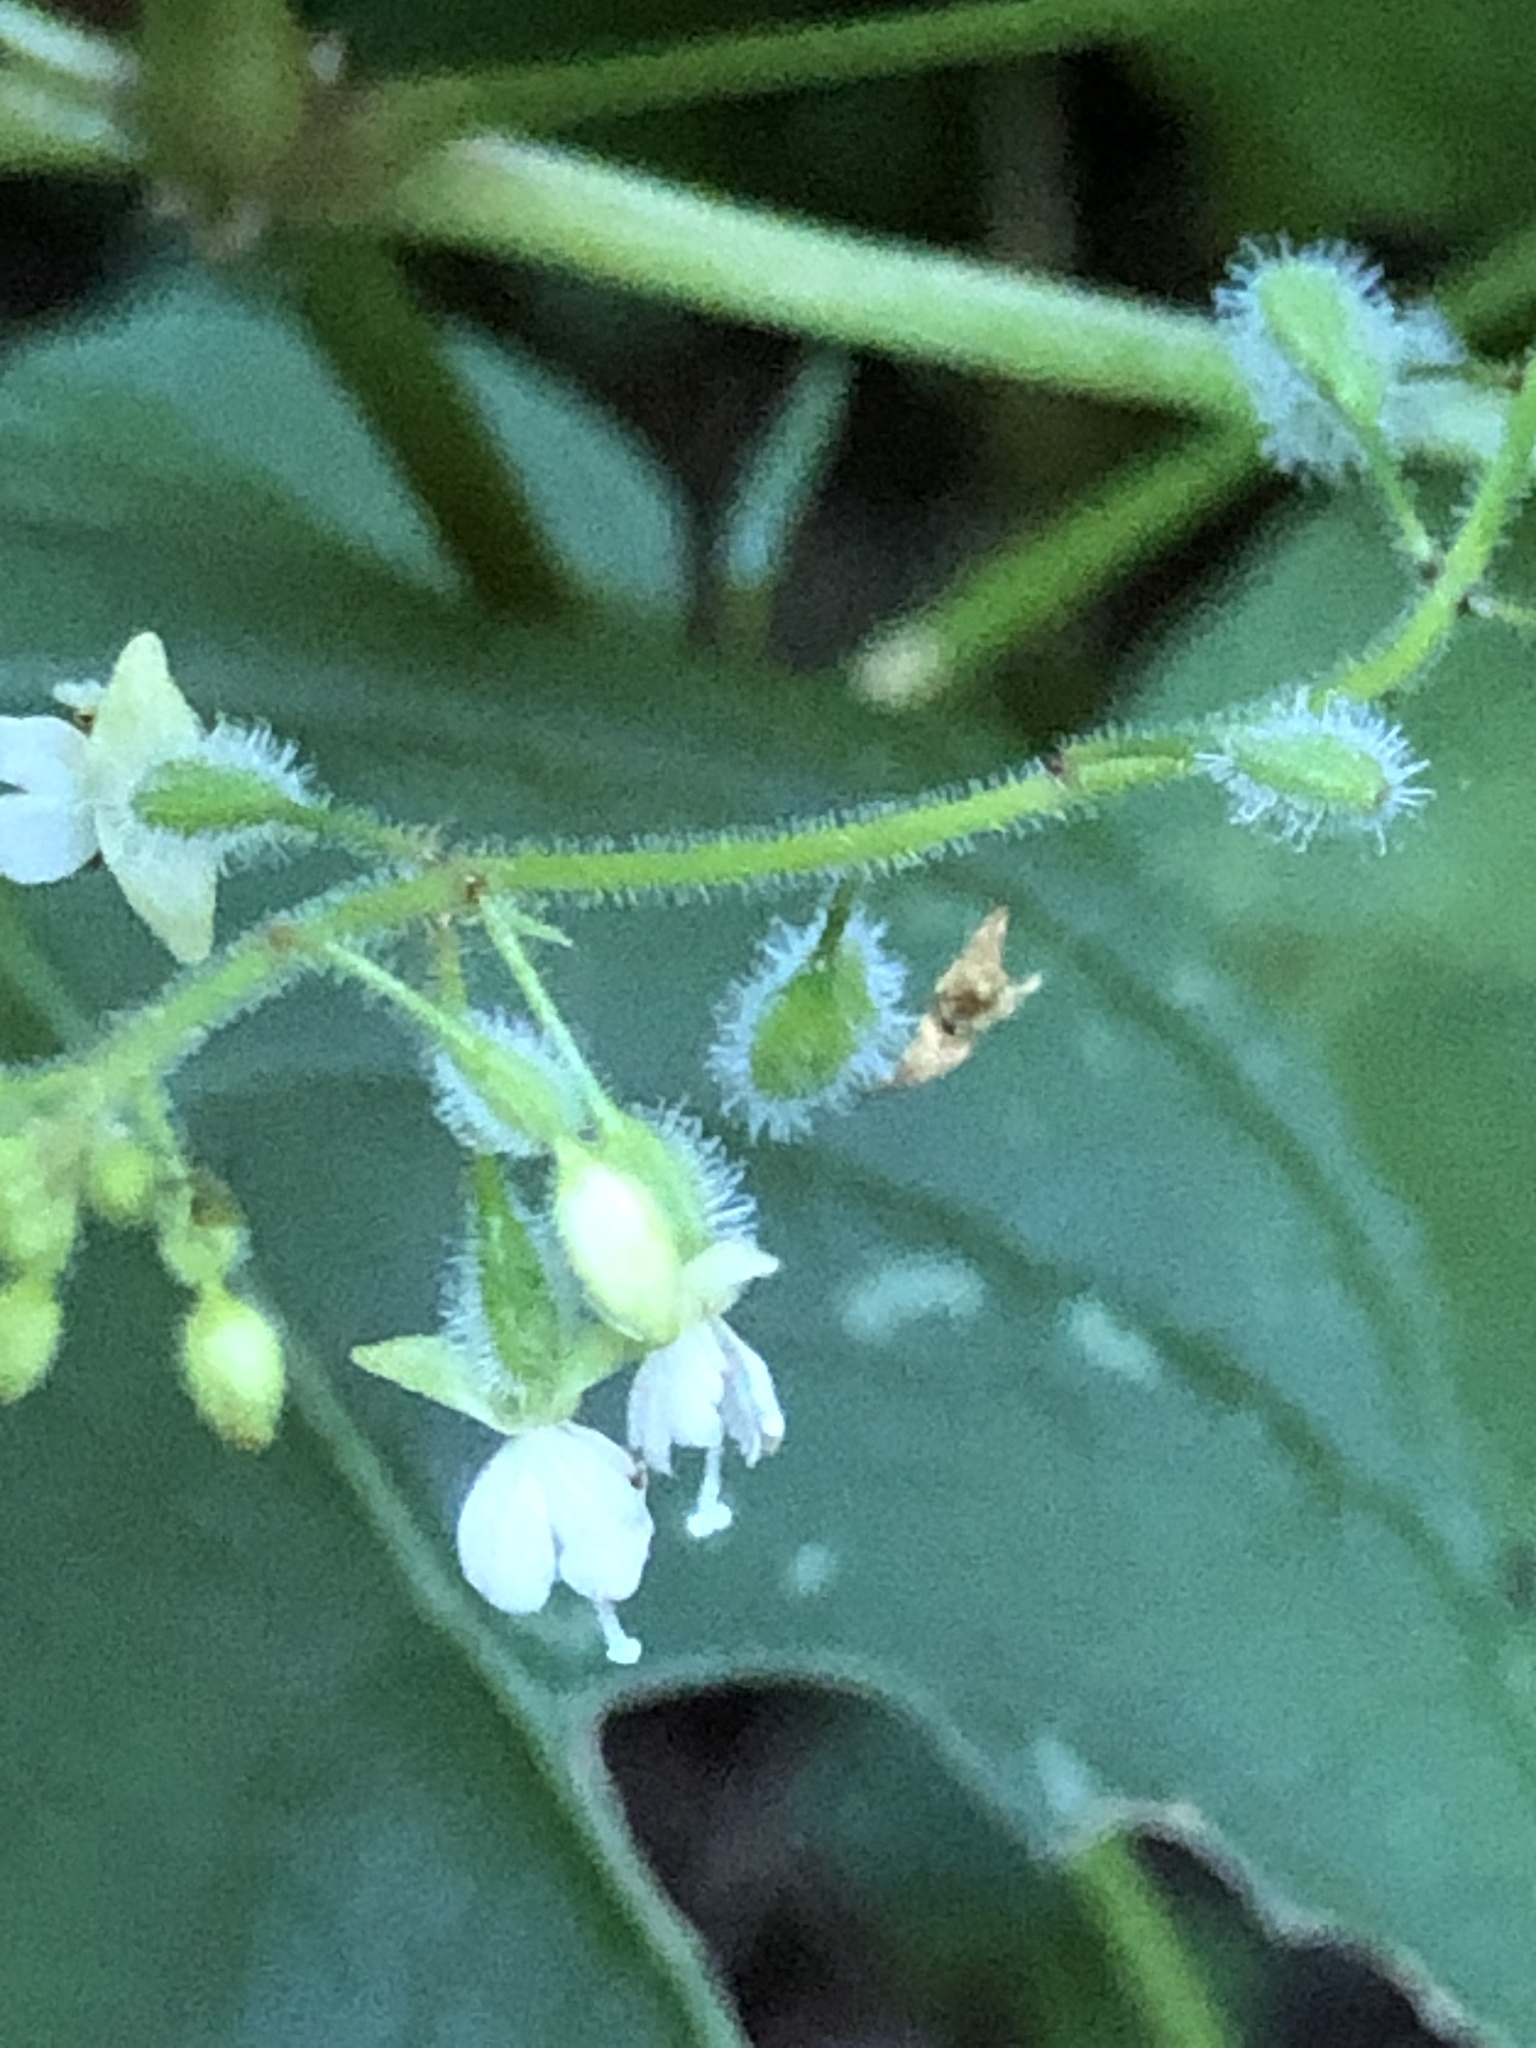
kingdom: Plantae
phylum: Tracheophyta
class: Magnoliopsida
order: Myrtales
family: Onagraceae
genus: Circaea
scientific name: Circaea canadensis
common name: Broad-leaved enchanter's nightshade
